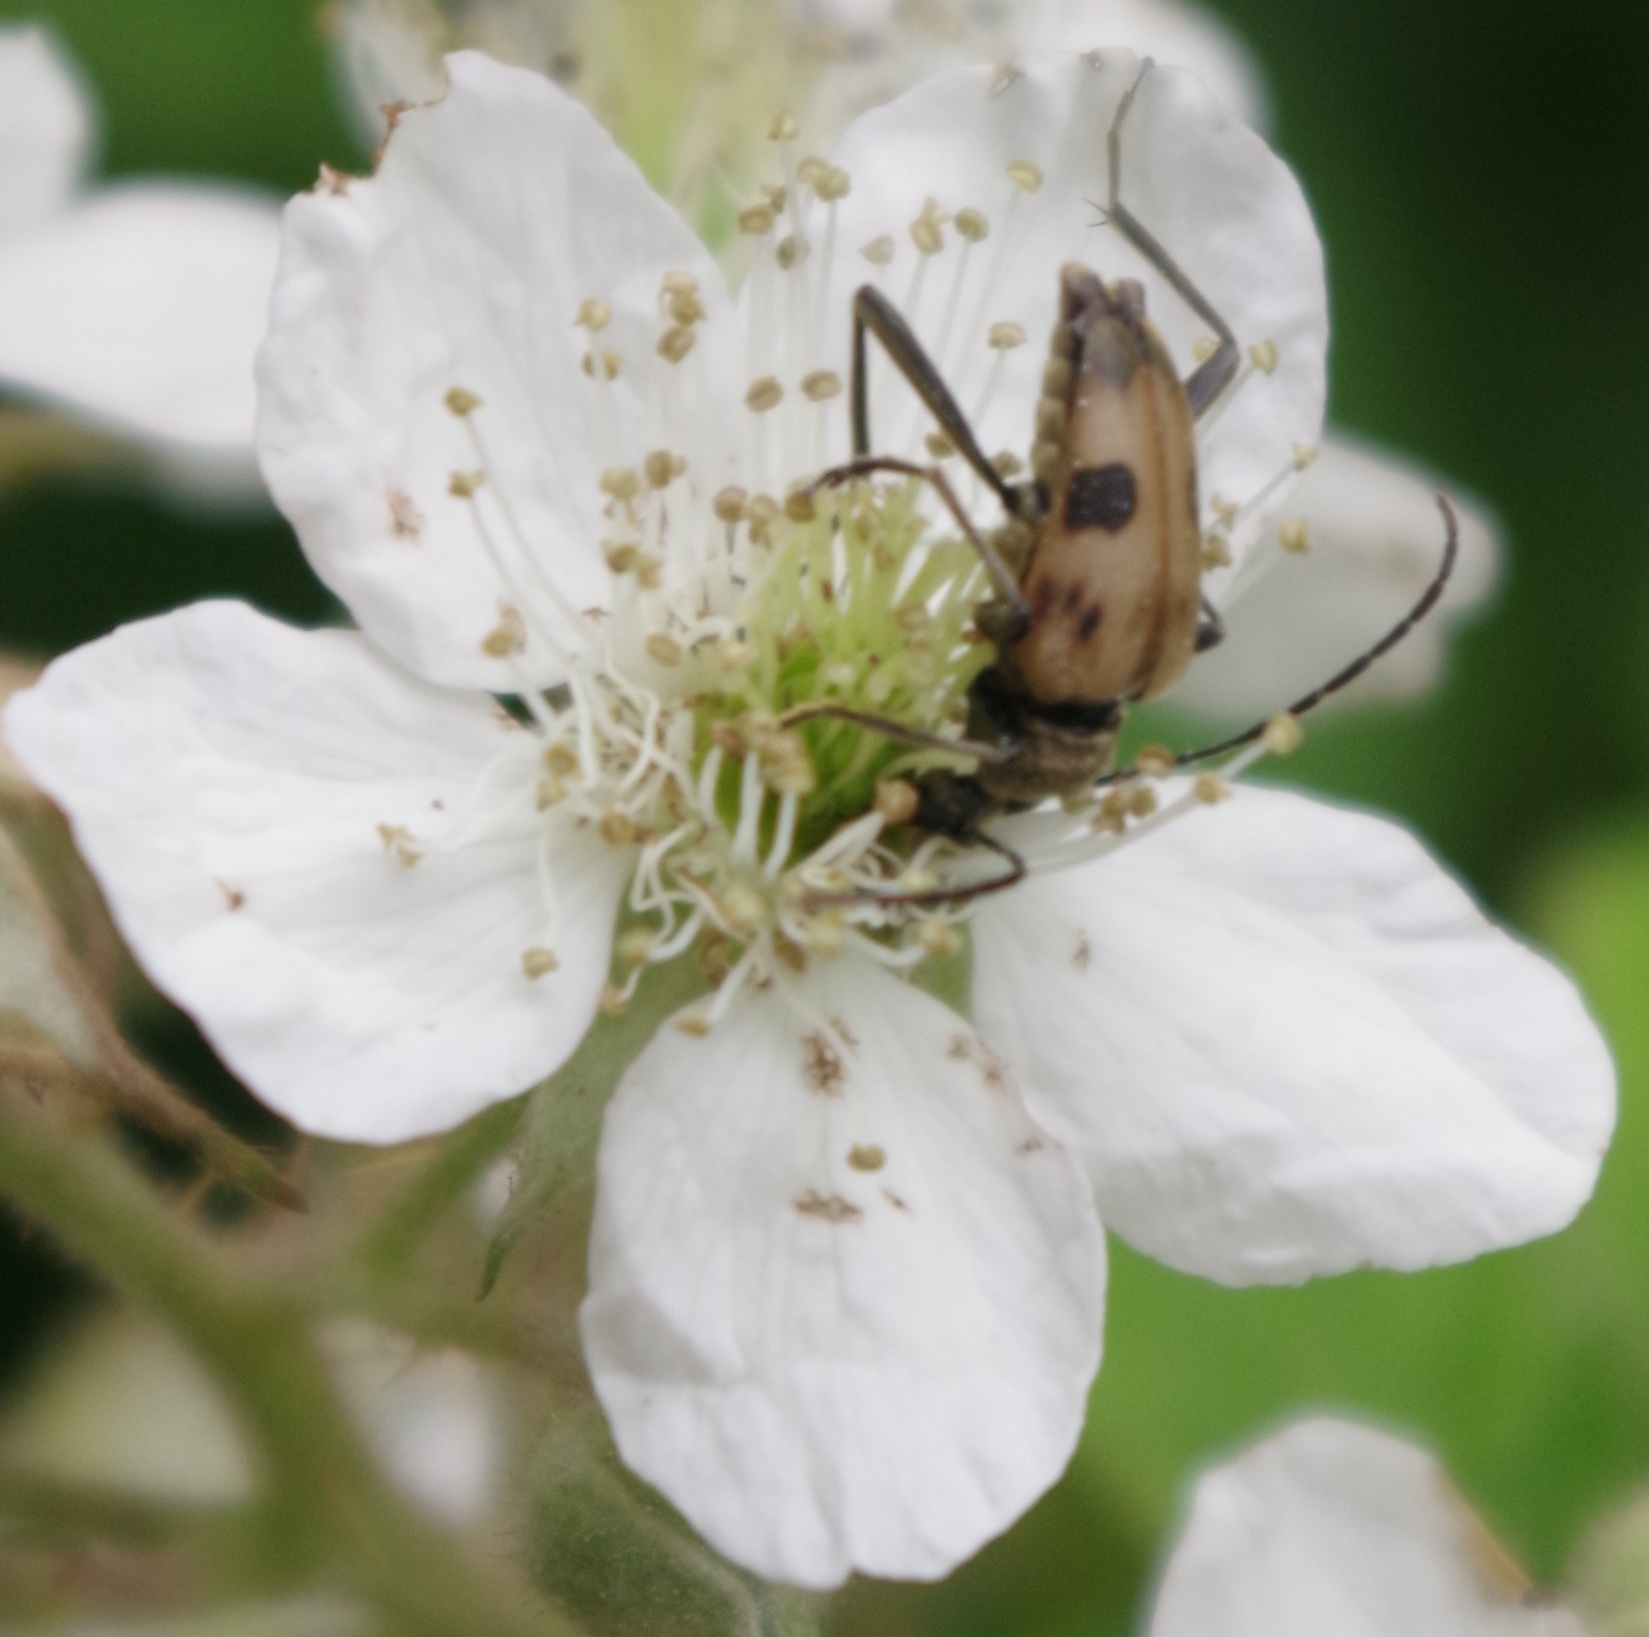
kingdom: Animalia
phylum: Arthropoda
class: Insecta
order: Coleoptera
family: Cerambycidae
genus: Pachytodes
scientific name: Pachytodes cerambyciformis
